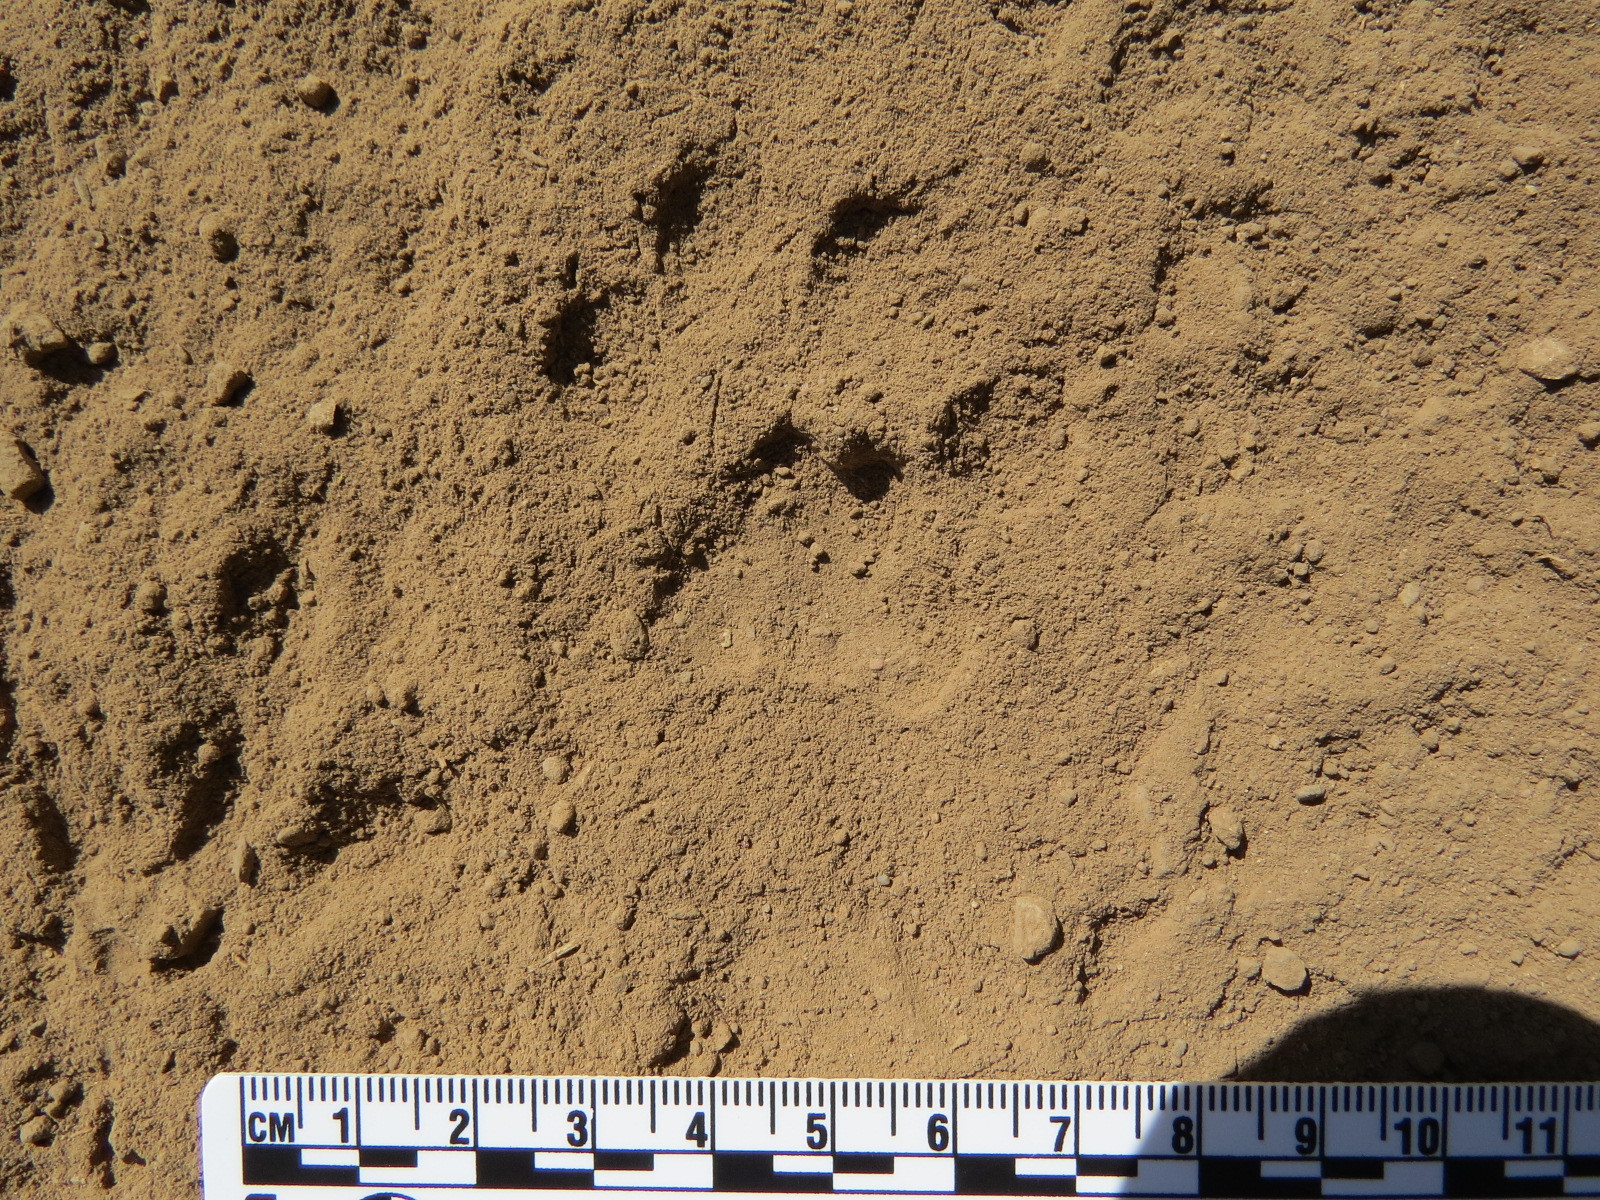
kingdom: Animalia
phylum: Chordata
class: Mammalia
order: Carnivora
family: Felidae
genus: Lynx
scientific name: Lynx rufus
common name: Bobcat
